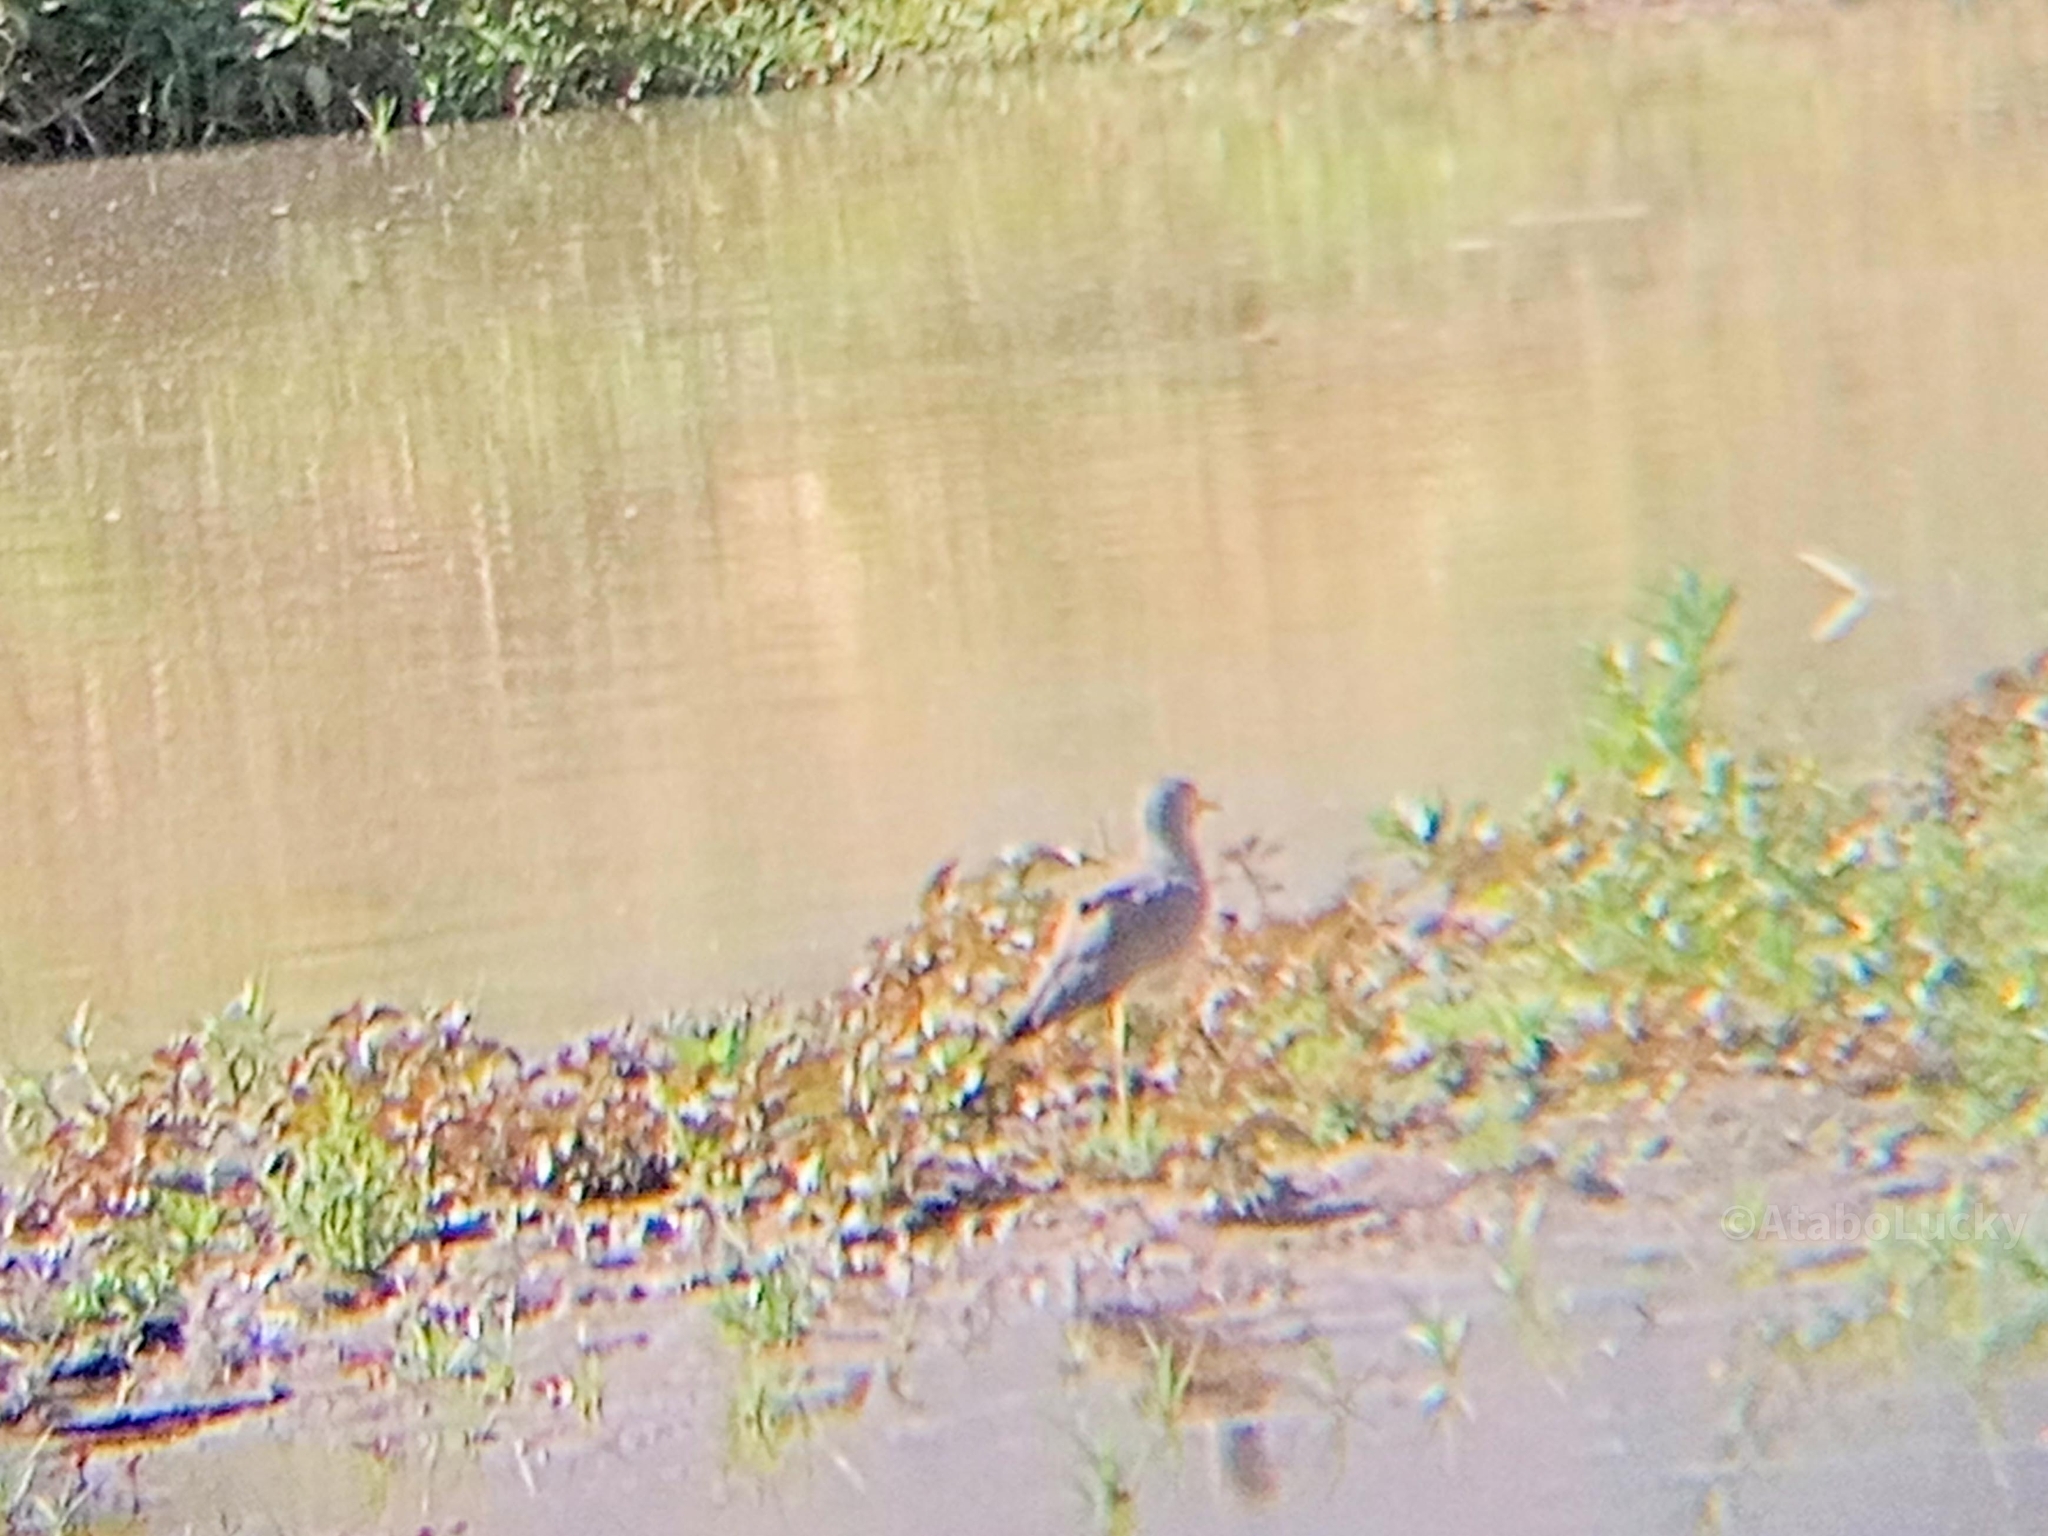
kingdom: Animalia
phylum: Chordata
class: Aves
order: Charadriiformes
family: Charadriidae
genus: Vanellus
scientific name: Vanellus senegallus
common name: African wattled lapwing
